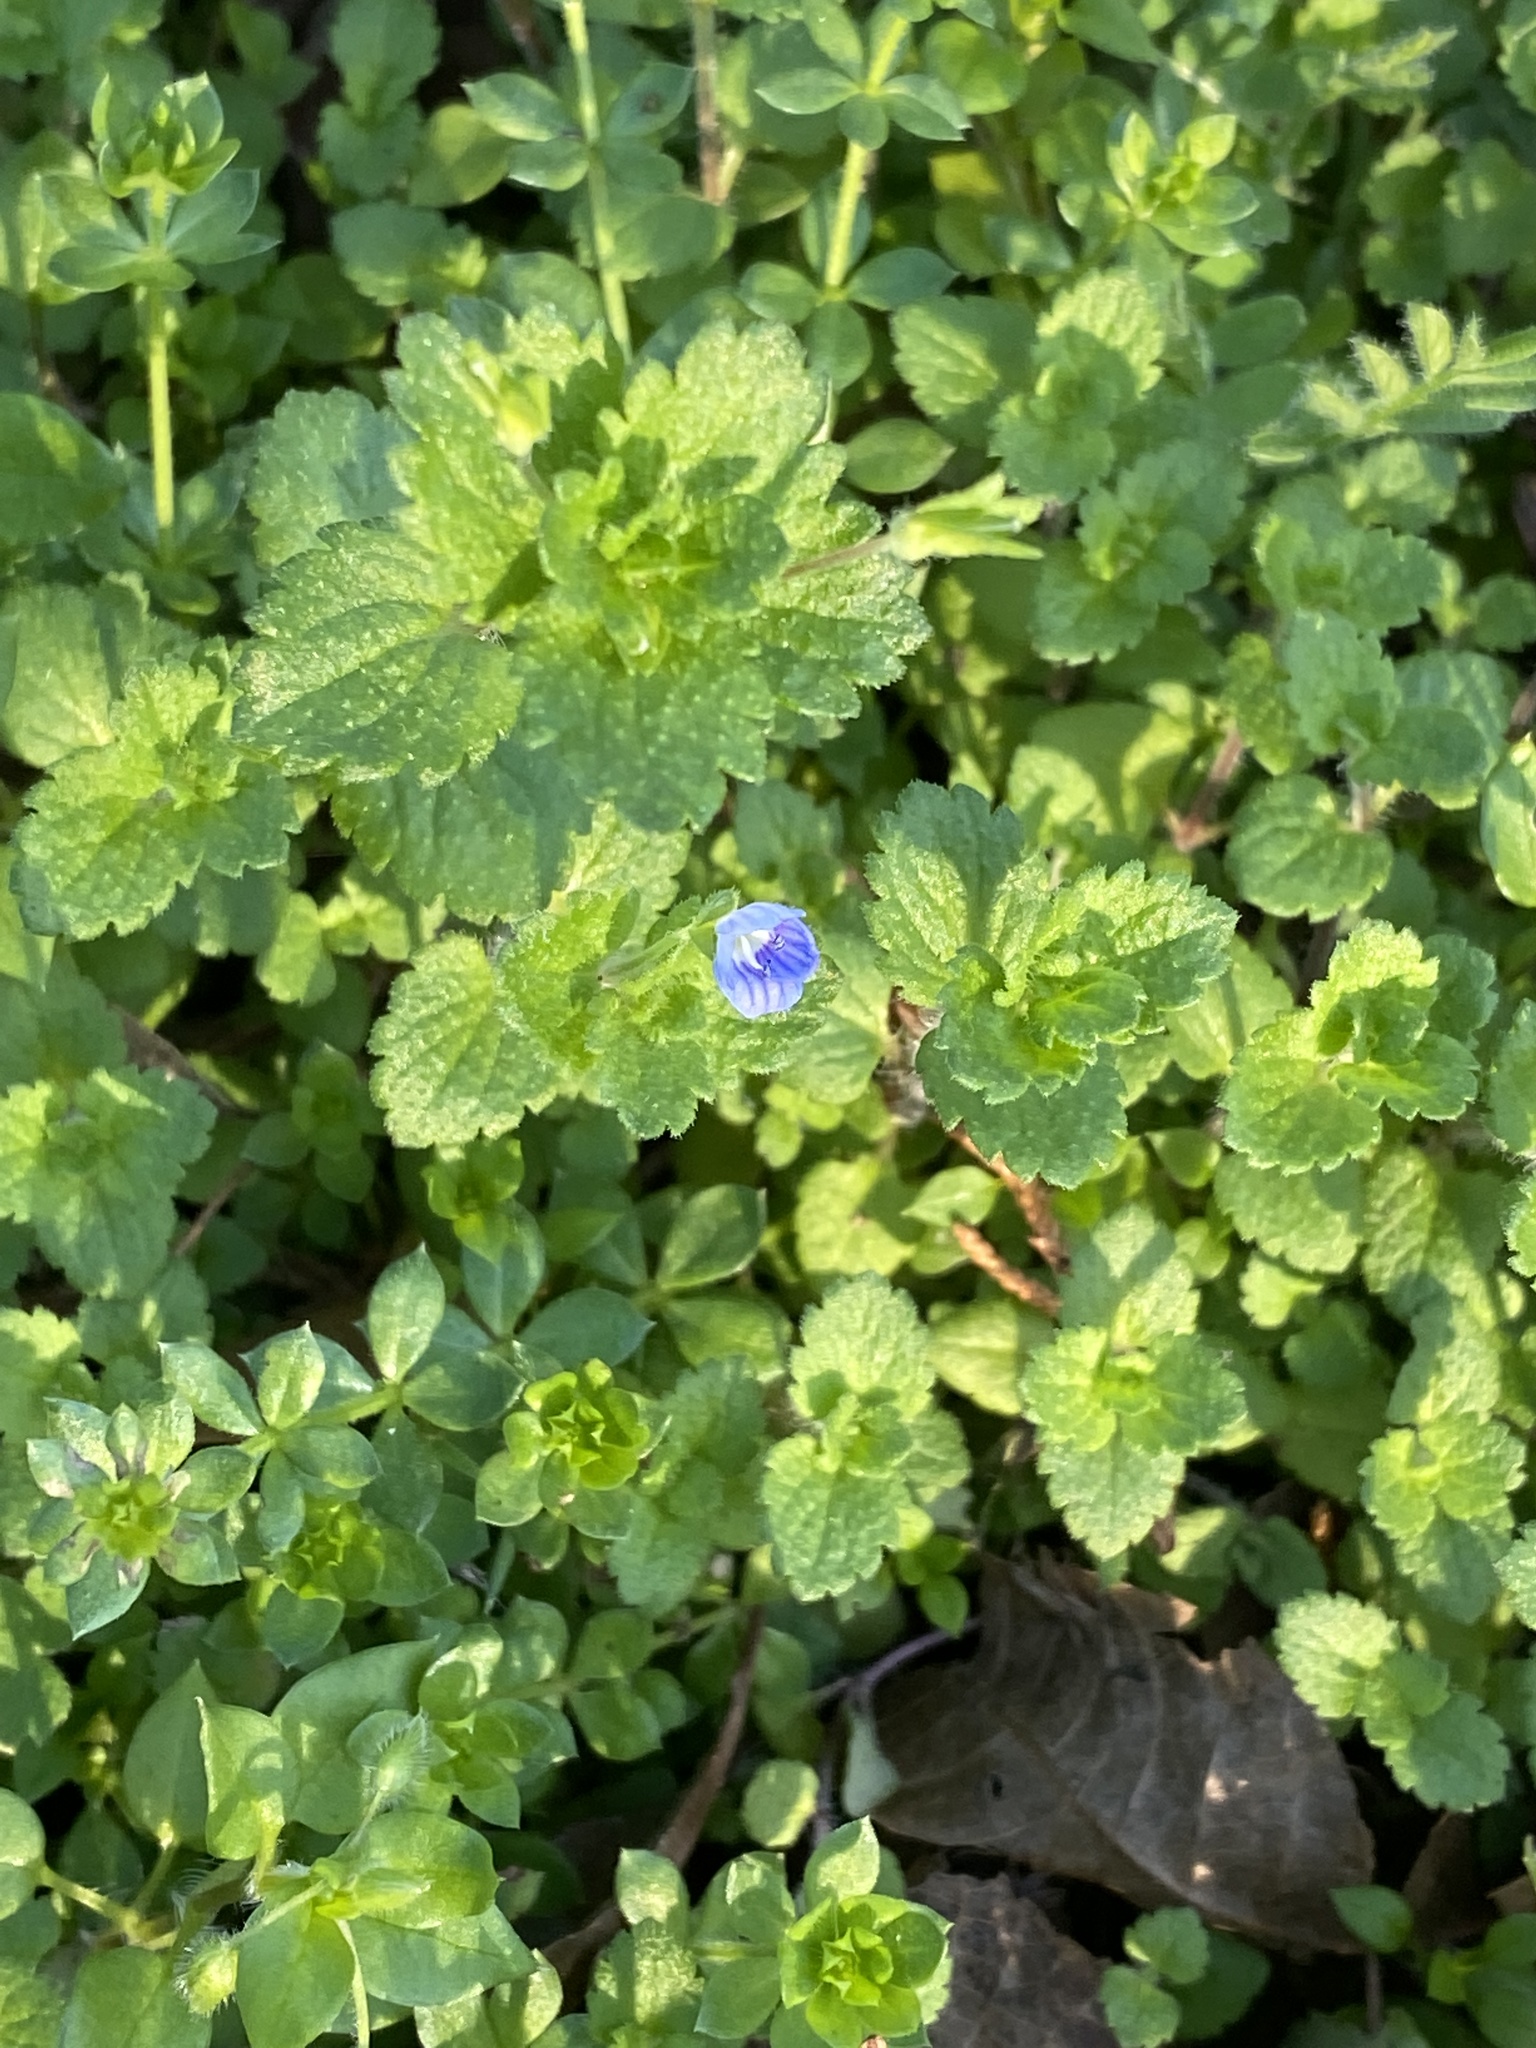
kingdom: Plantae
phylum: Tracheophyta
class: Magnoliopsida
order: Lamiales
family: Plantaginaceae
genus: Veronica
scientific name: Veronica persica
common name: Common field-speedwell
